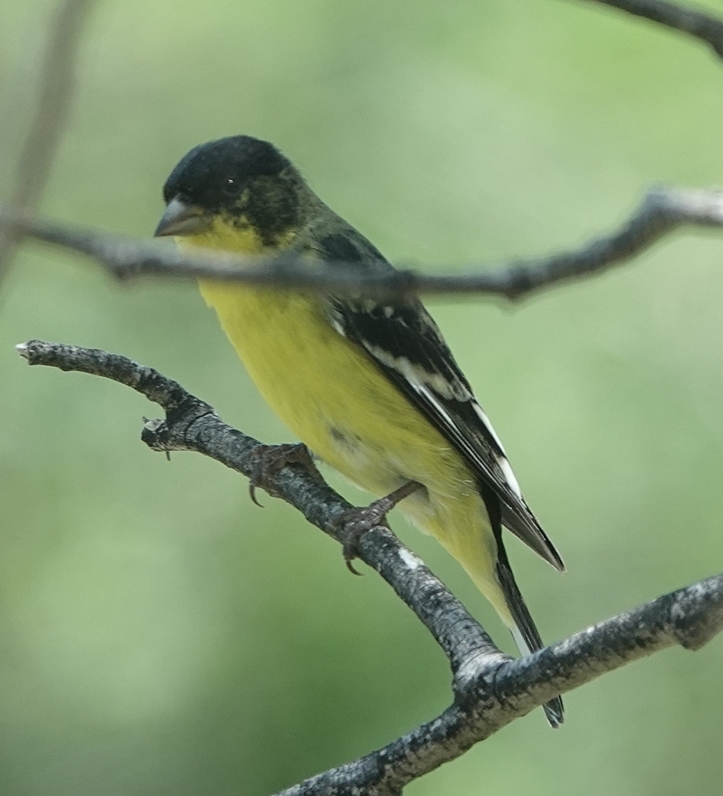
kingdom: Animalia
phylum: Chordata
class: Aves
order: Passeriformes
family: Fringillidae
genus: Spinus
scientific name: Spinus psaltria
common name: Lesser goldfinch
